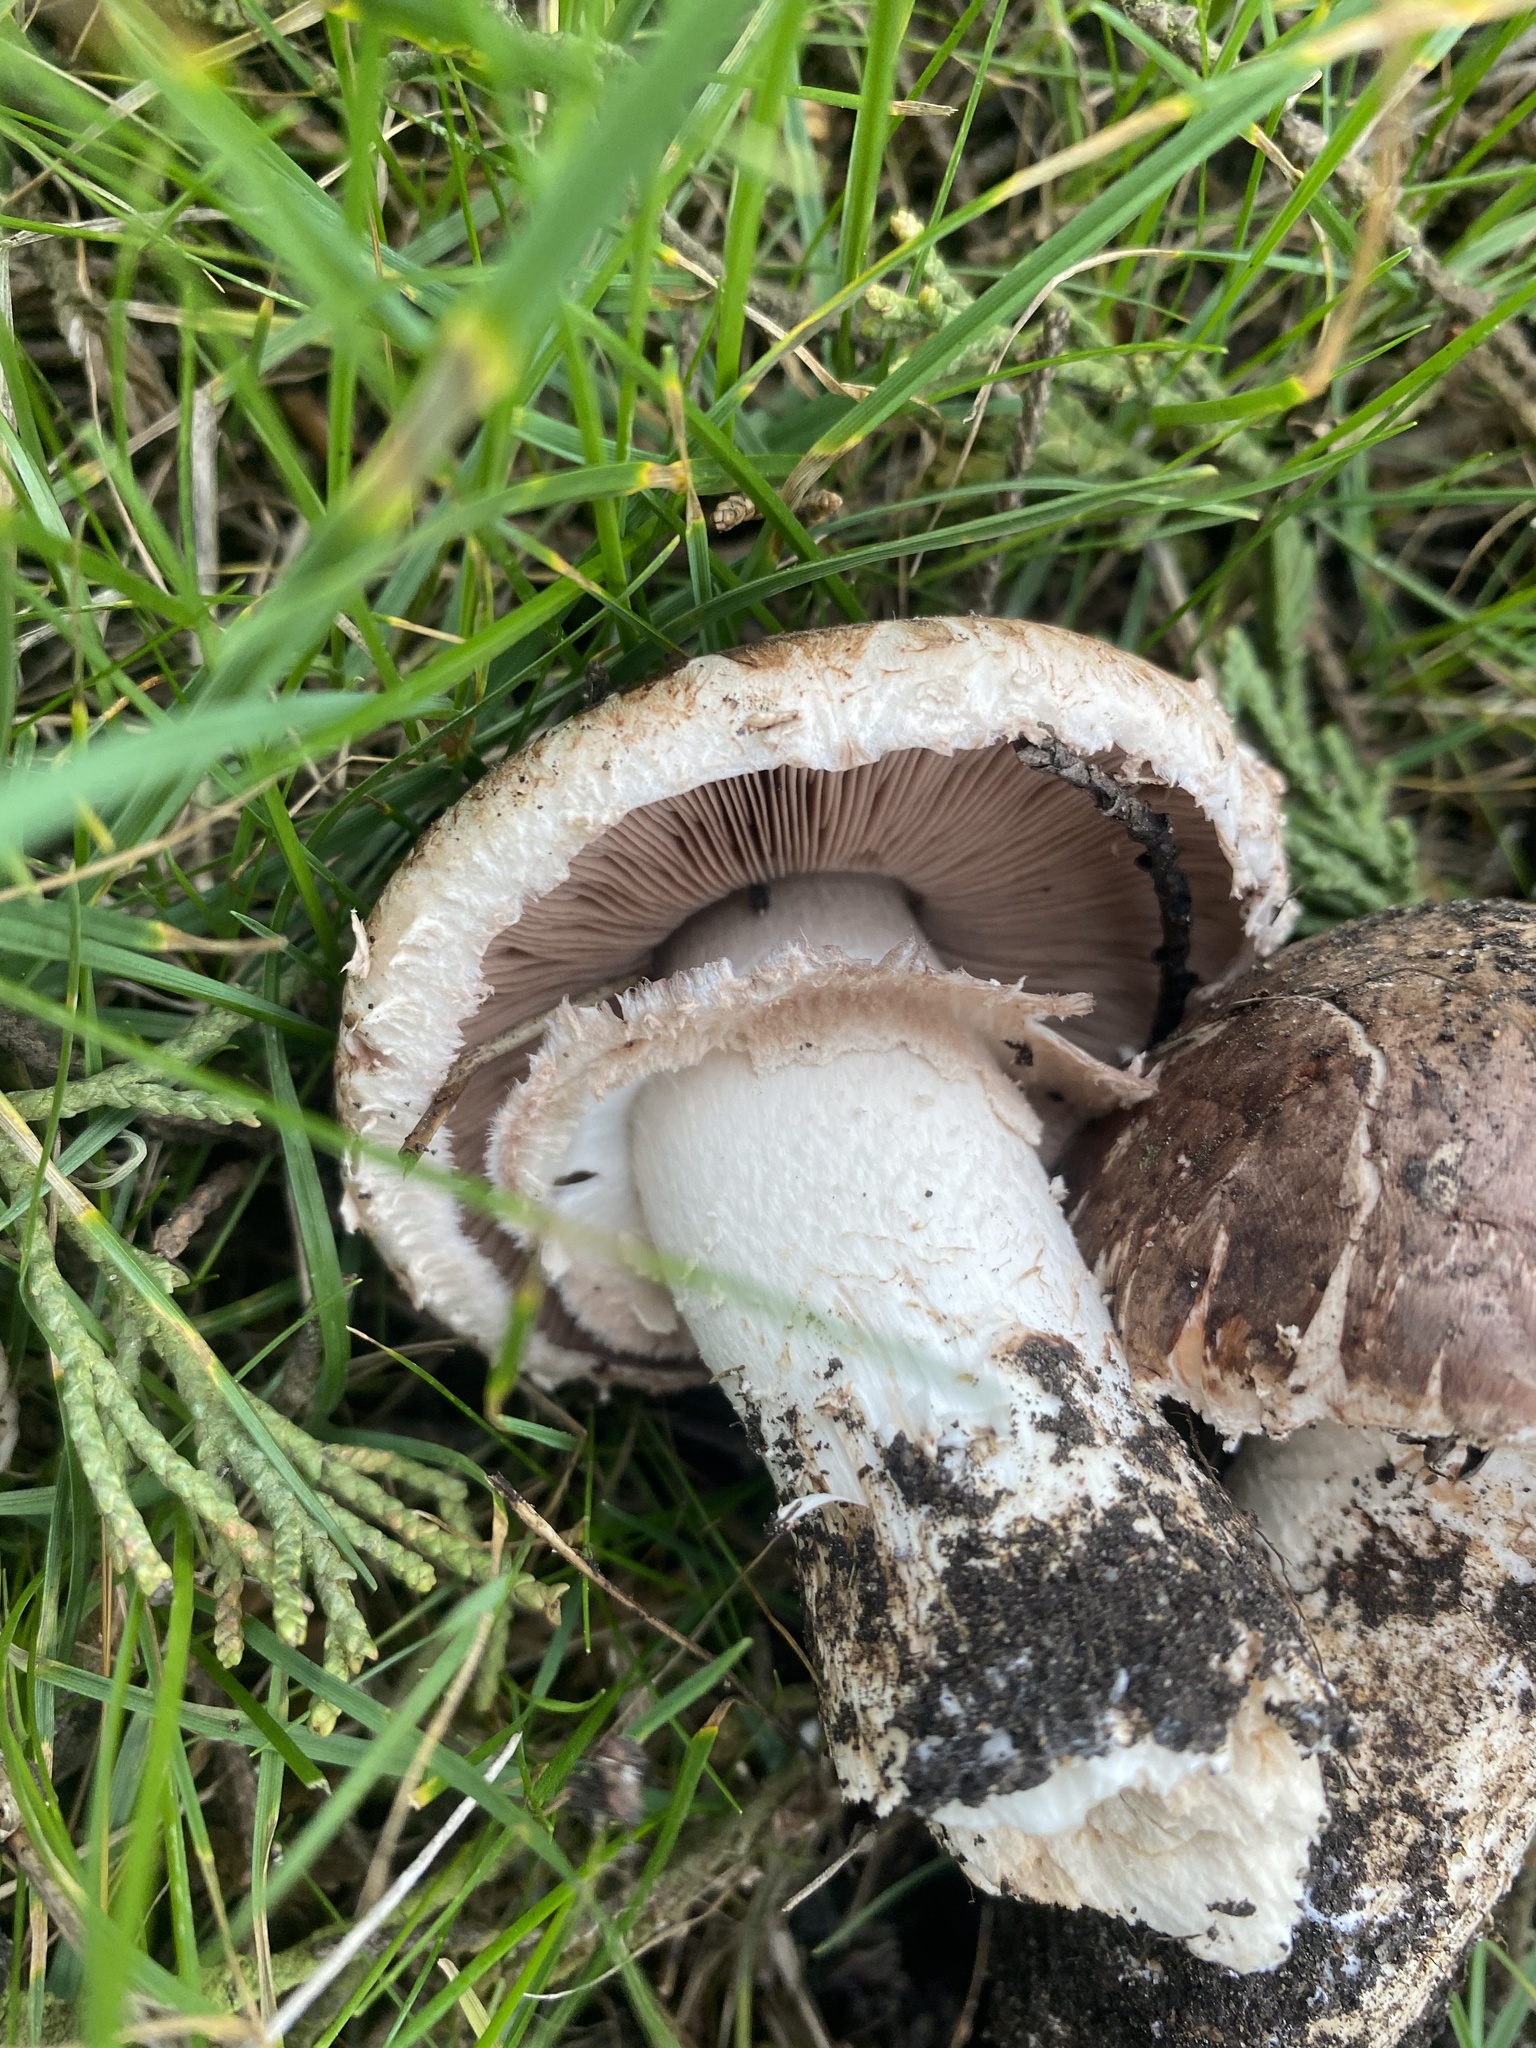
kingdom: Fungi
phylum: Basidiomycota
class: Agaricomycetes
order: Agaricales
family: Agaricaceae
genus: Agaricus
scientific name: Agaricus pattersoniae
